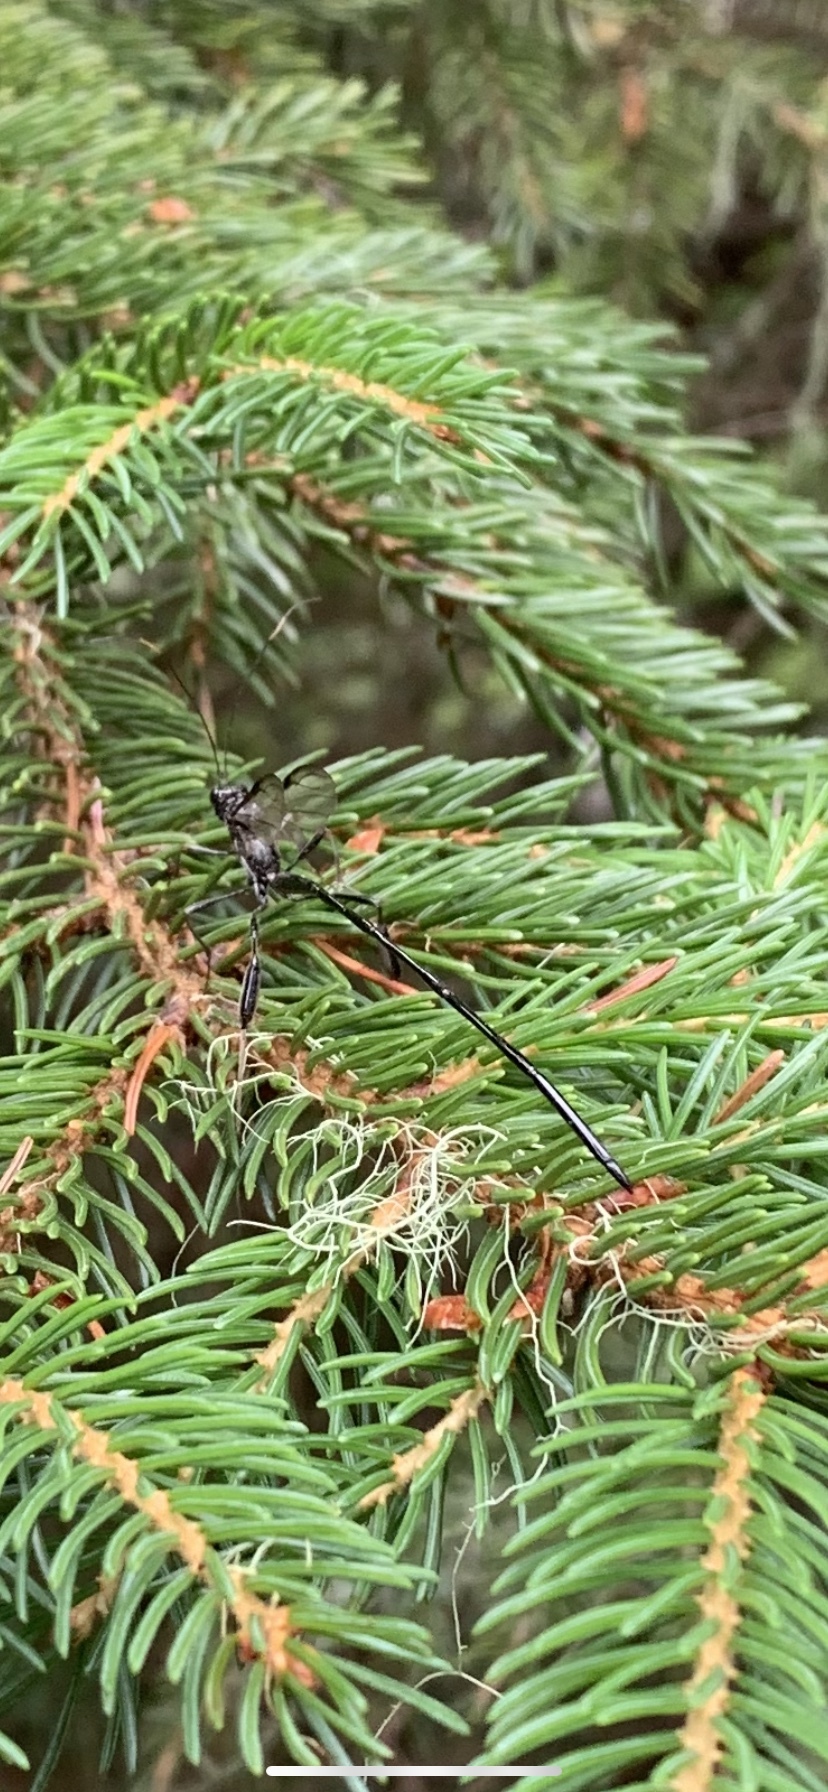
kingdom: Animalia
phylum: Arthropoda
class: Insecta
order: Hymenoptera
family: Pelecinidae
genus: Pelecinus
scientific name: Pelecinus polyturator
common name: American pelecinid wasp
